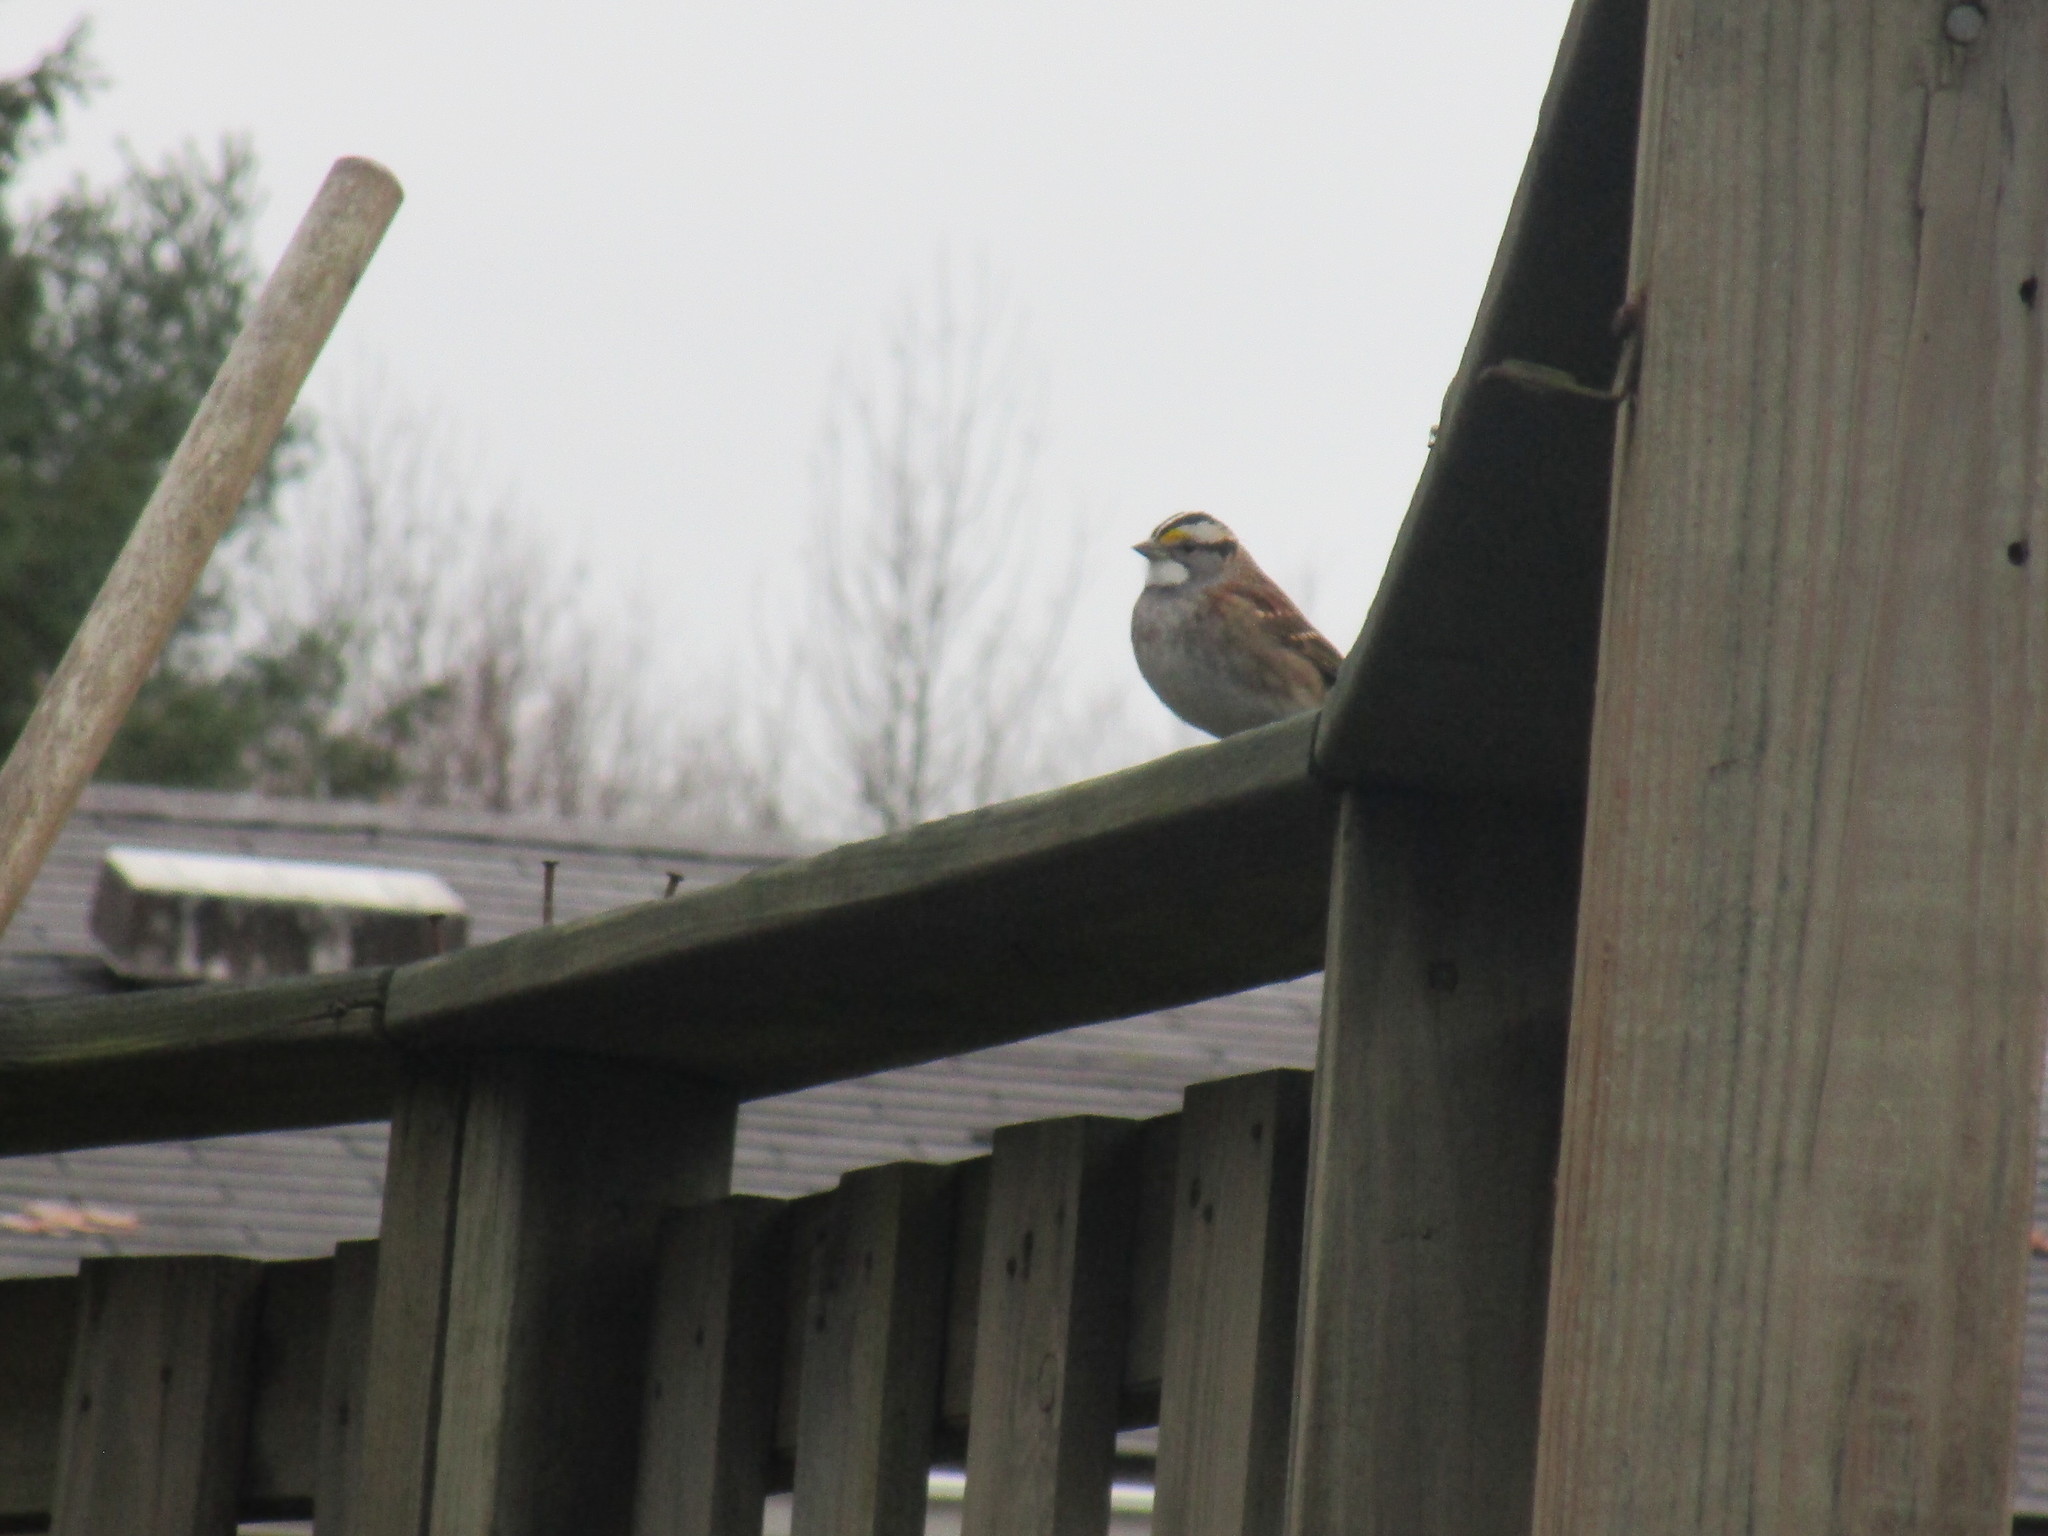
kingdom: Animalia
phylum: Chordata
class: Aves
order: Passeriformes
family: Passerellidae
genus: Zonotrichia
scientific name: Zonotrichia albicollis
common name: White-throated sparrow
